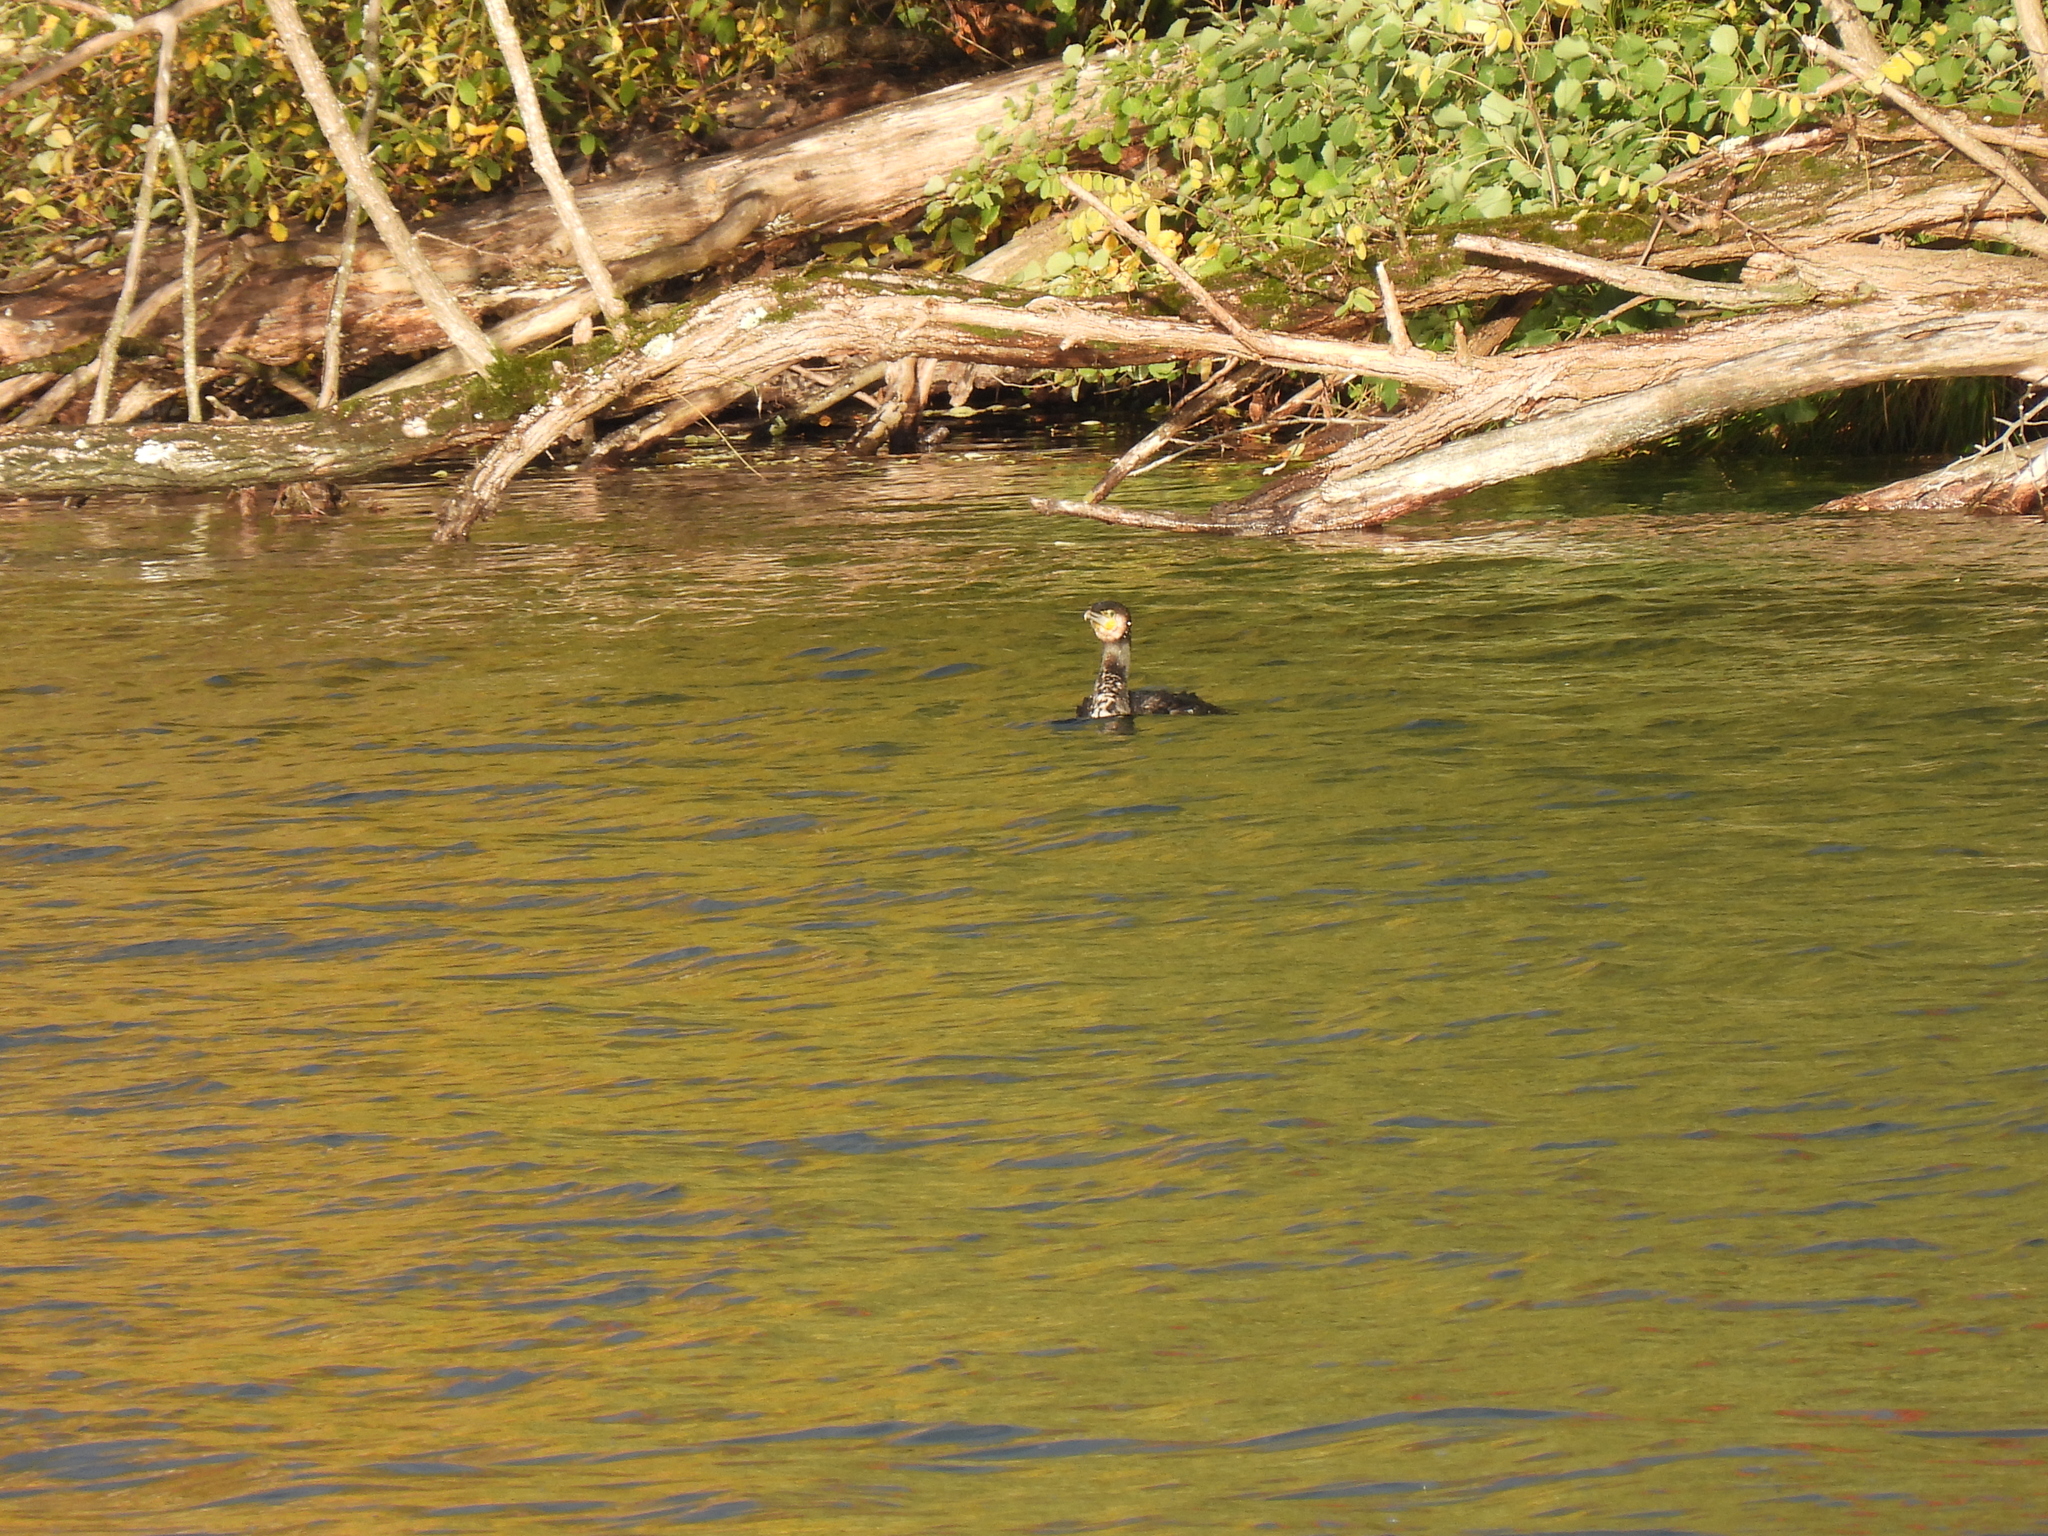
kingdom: Animalia
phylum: Chordata
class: Aves
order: Suliformes
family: Phalacrocoracidae
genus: Phalacrocorax
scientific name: Phalacrocorax carbo
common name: Great cormorant
